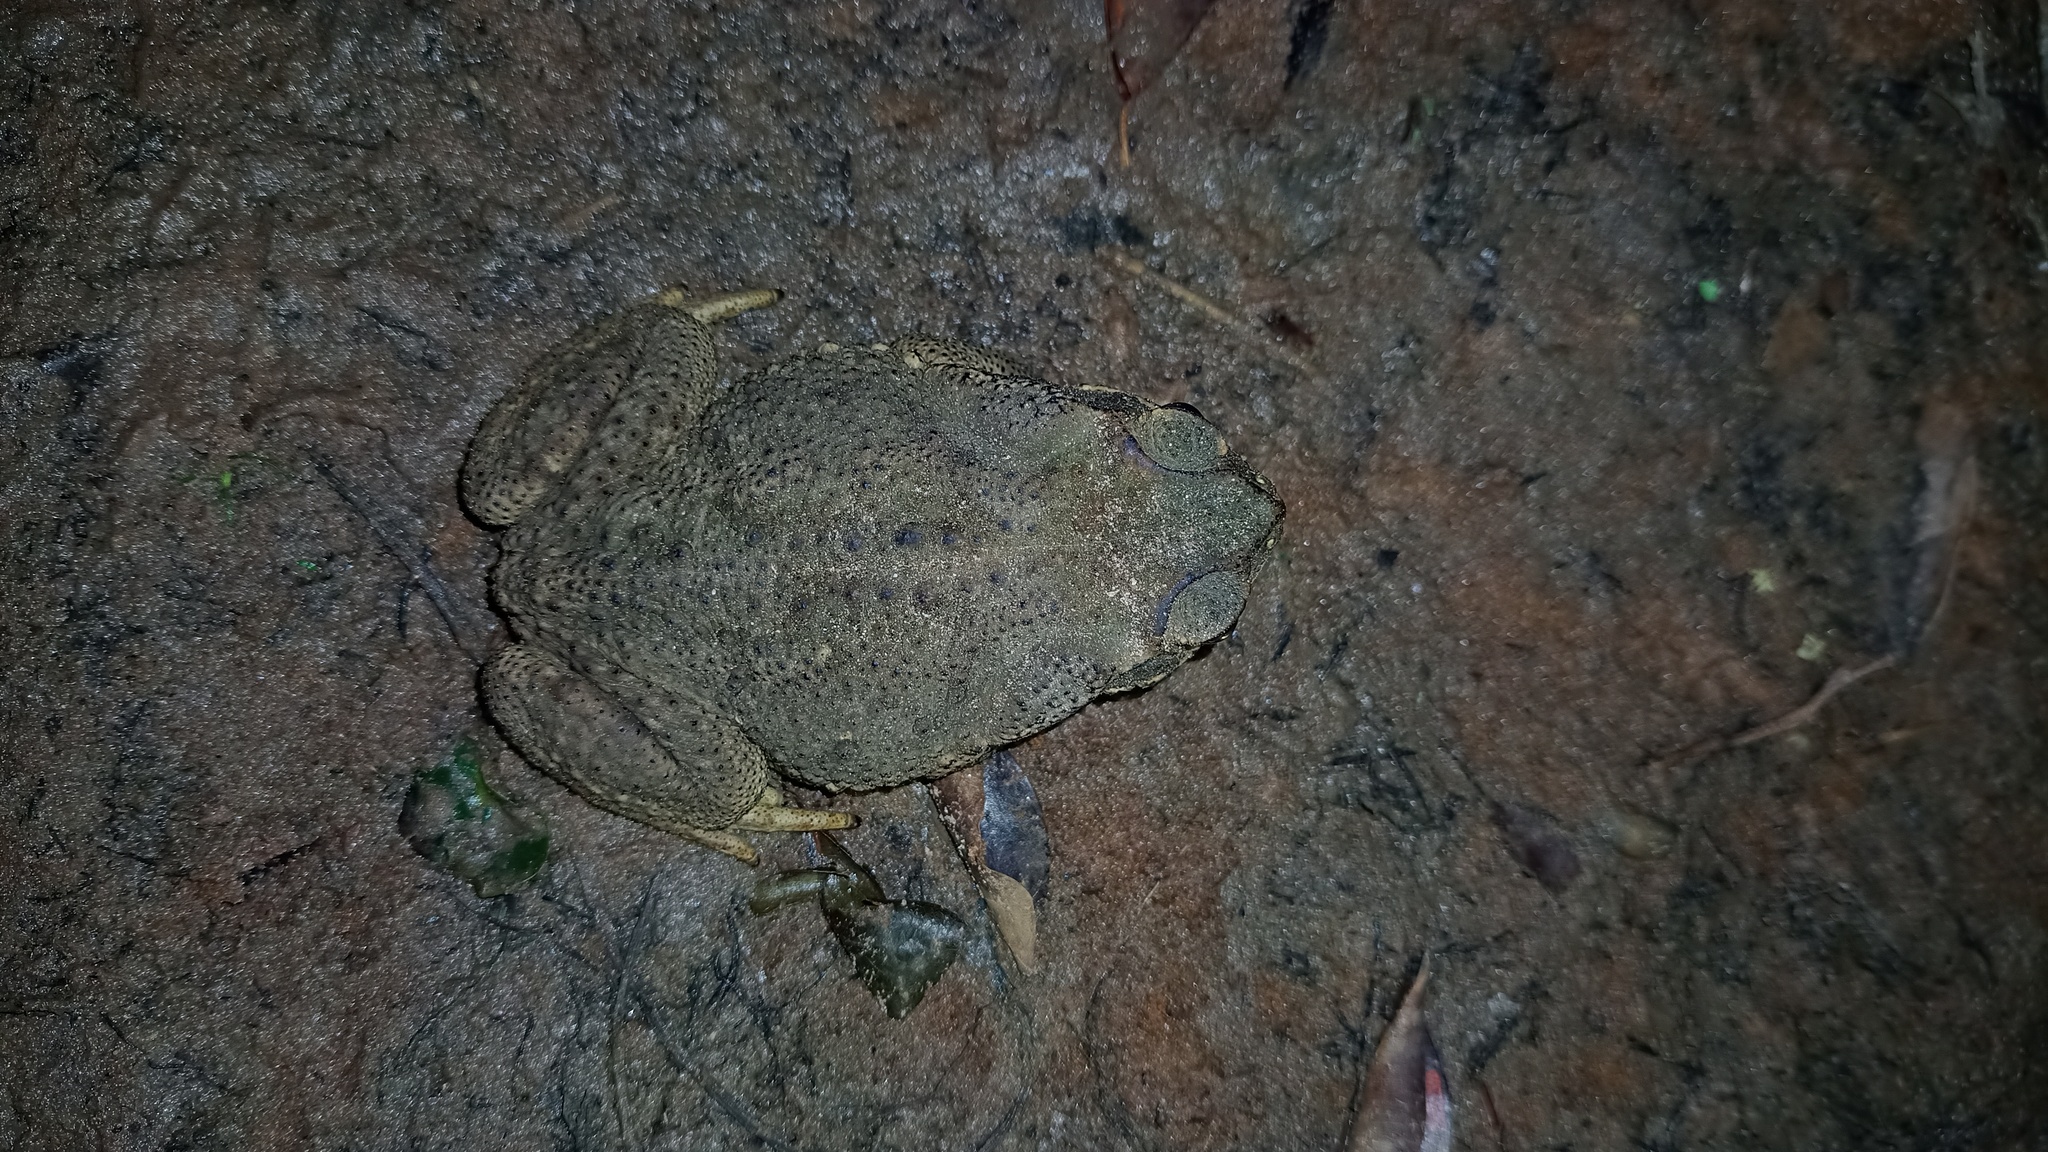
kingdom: Animalia
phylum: Chordata
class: Amphibia
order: Anura
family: Bufonidae
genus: Rhinella
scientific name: Rhinella diptycha
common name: Cope's toad
